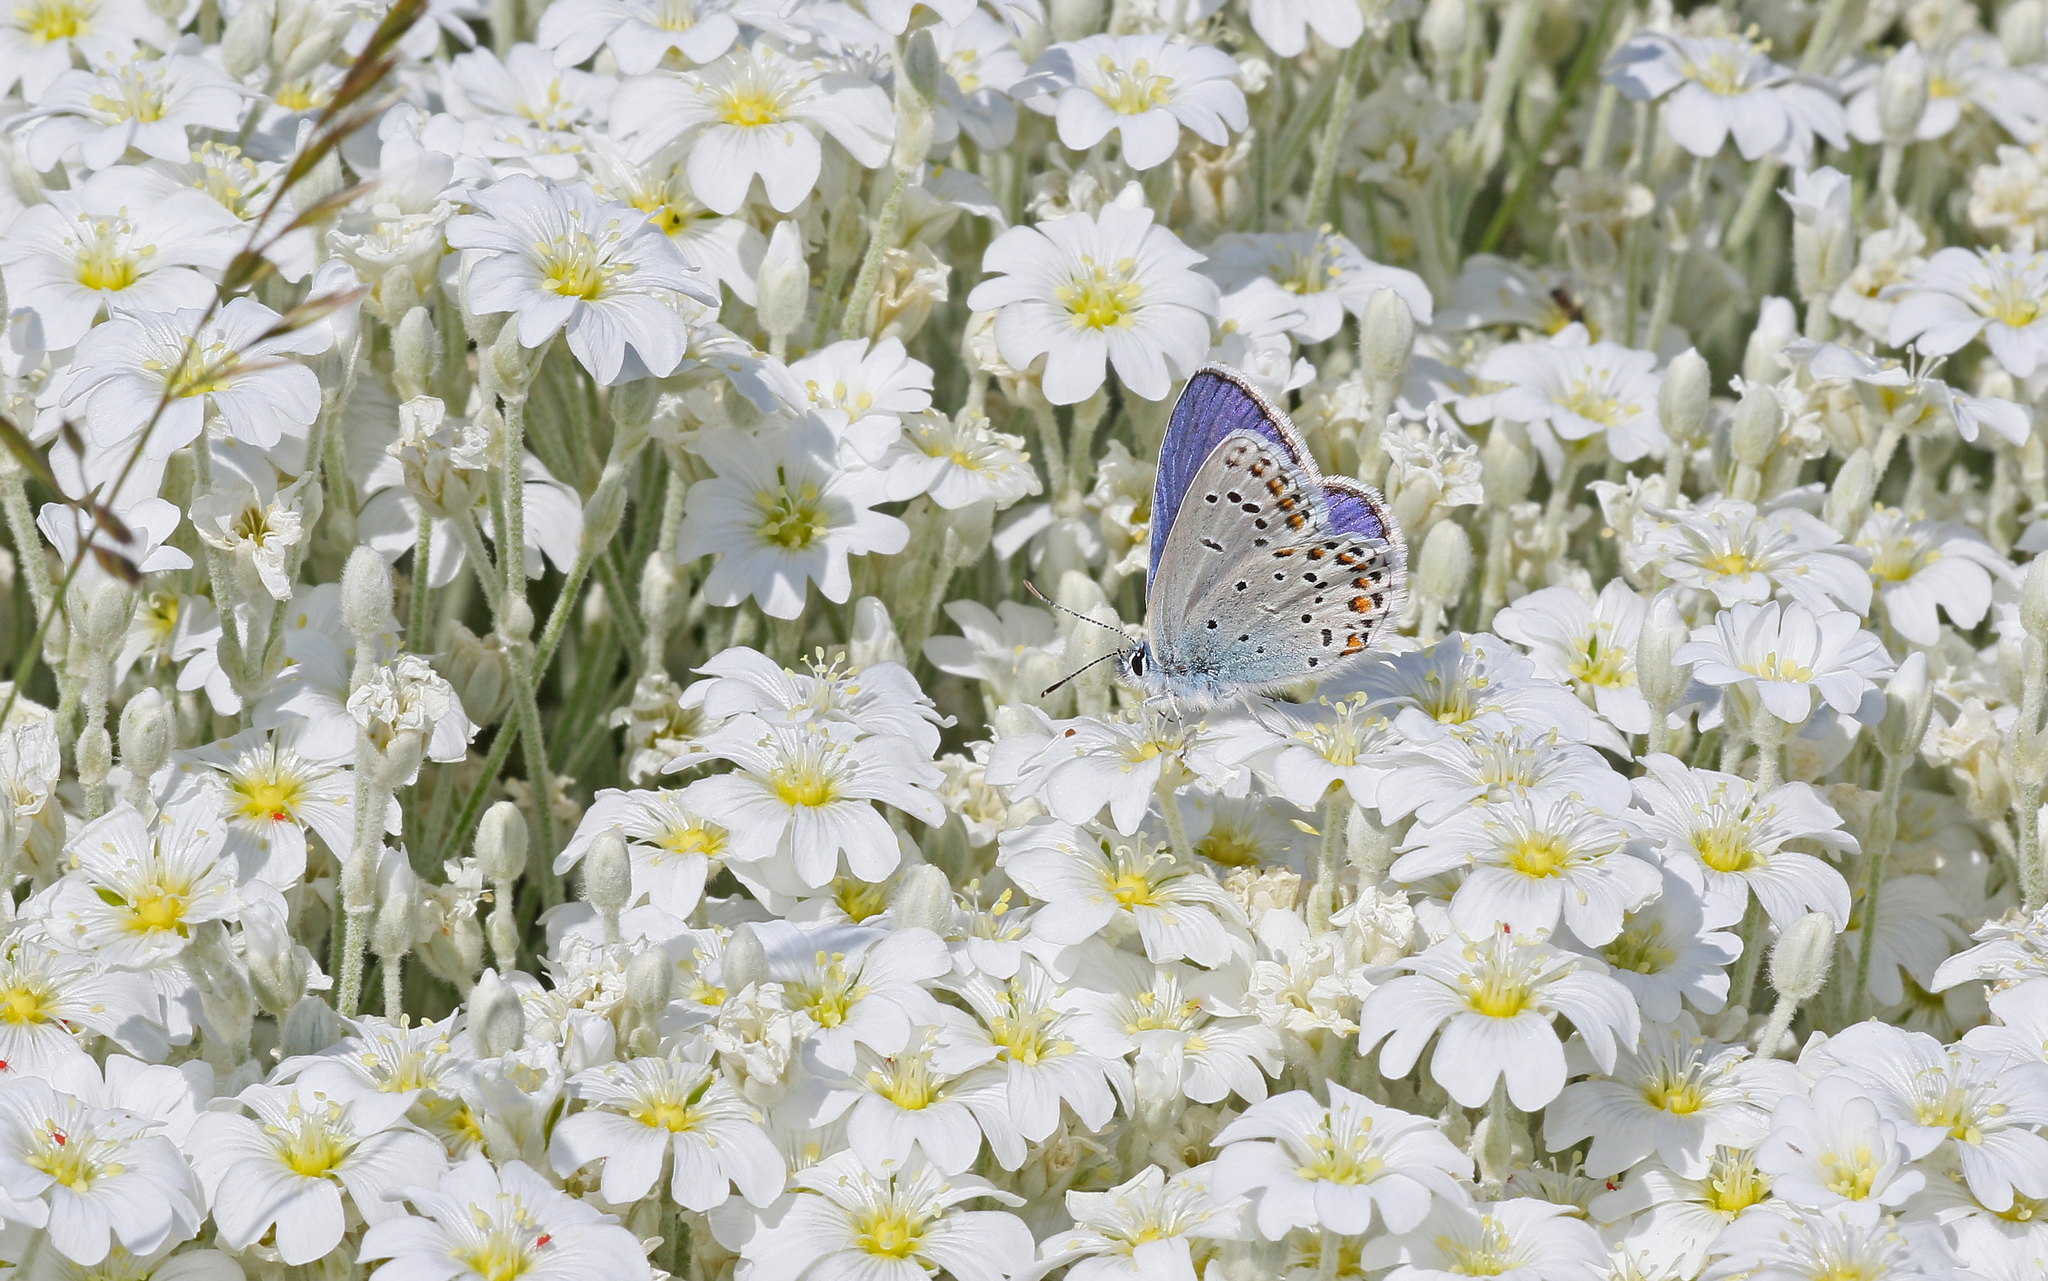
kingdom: Animalia
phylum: Arthropoda
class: Insecta
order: Lepidoptera
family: Lycaenidae
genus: Plebejus
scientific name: Plebejus pylaon
